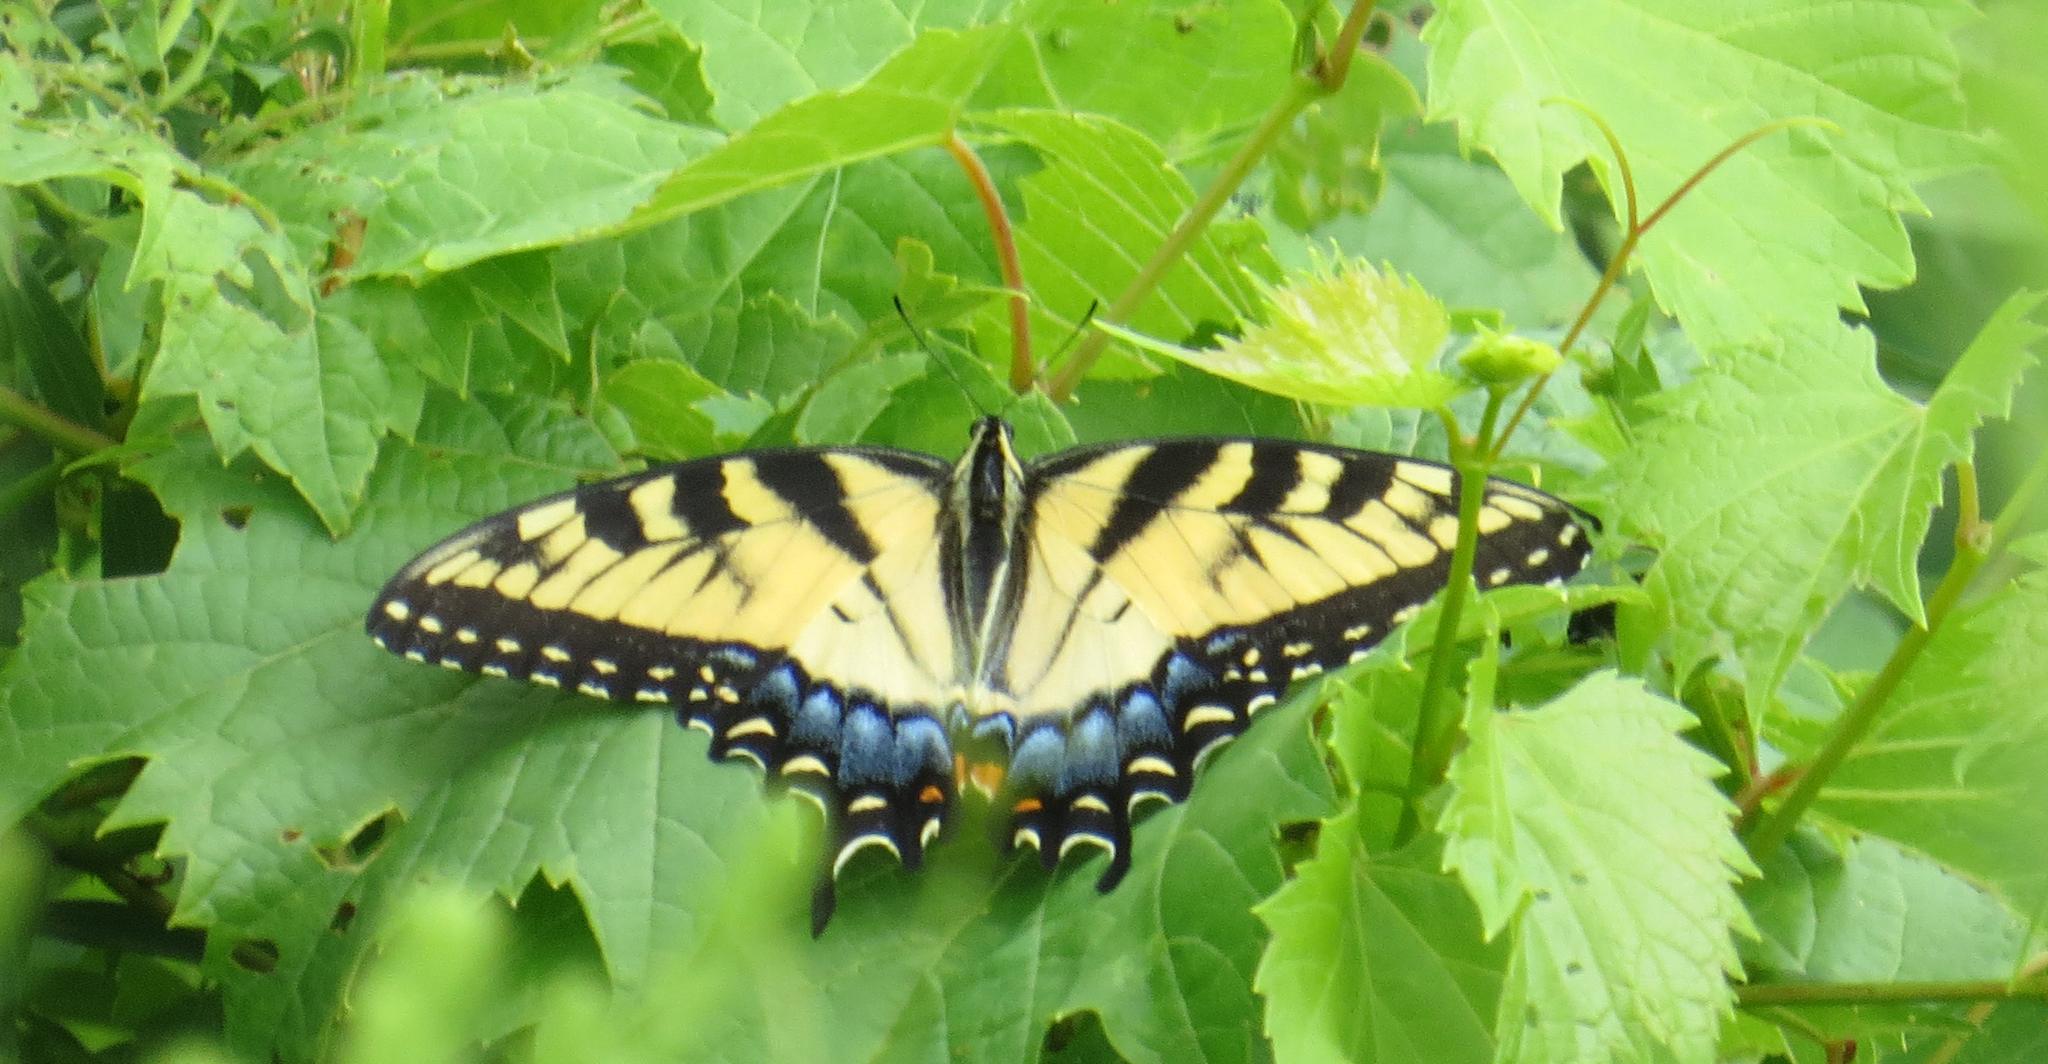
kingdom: Animalia
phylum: Arthropoda
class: Insecta
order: Lepidoptera
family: Papilionidae
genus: Papilio
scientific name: Papilio glaucus
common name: Tiger swallowtail
